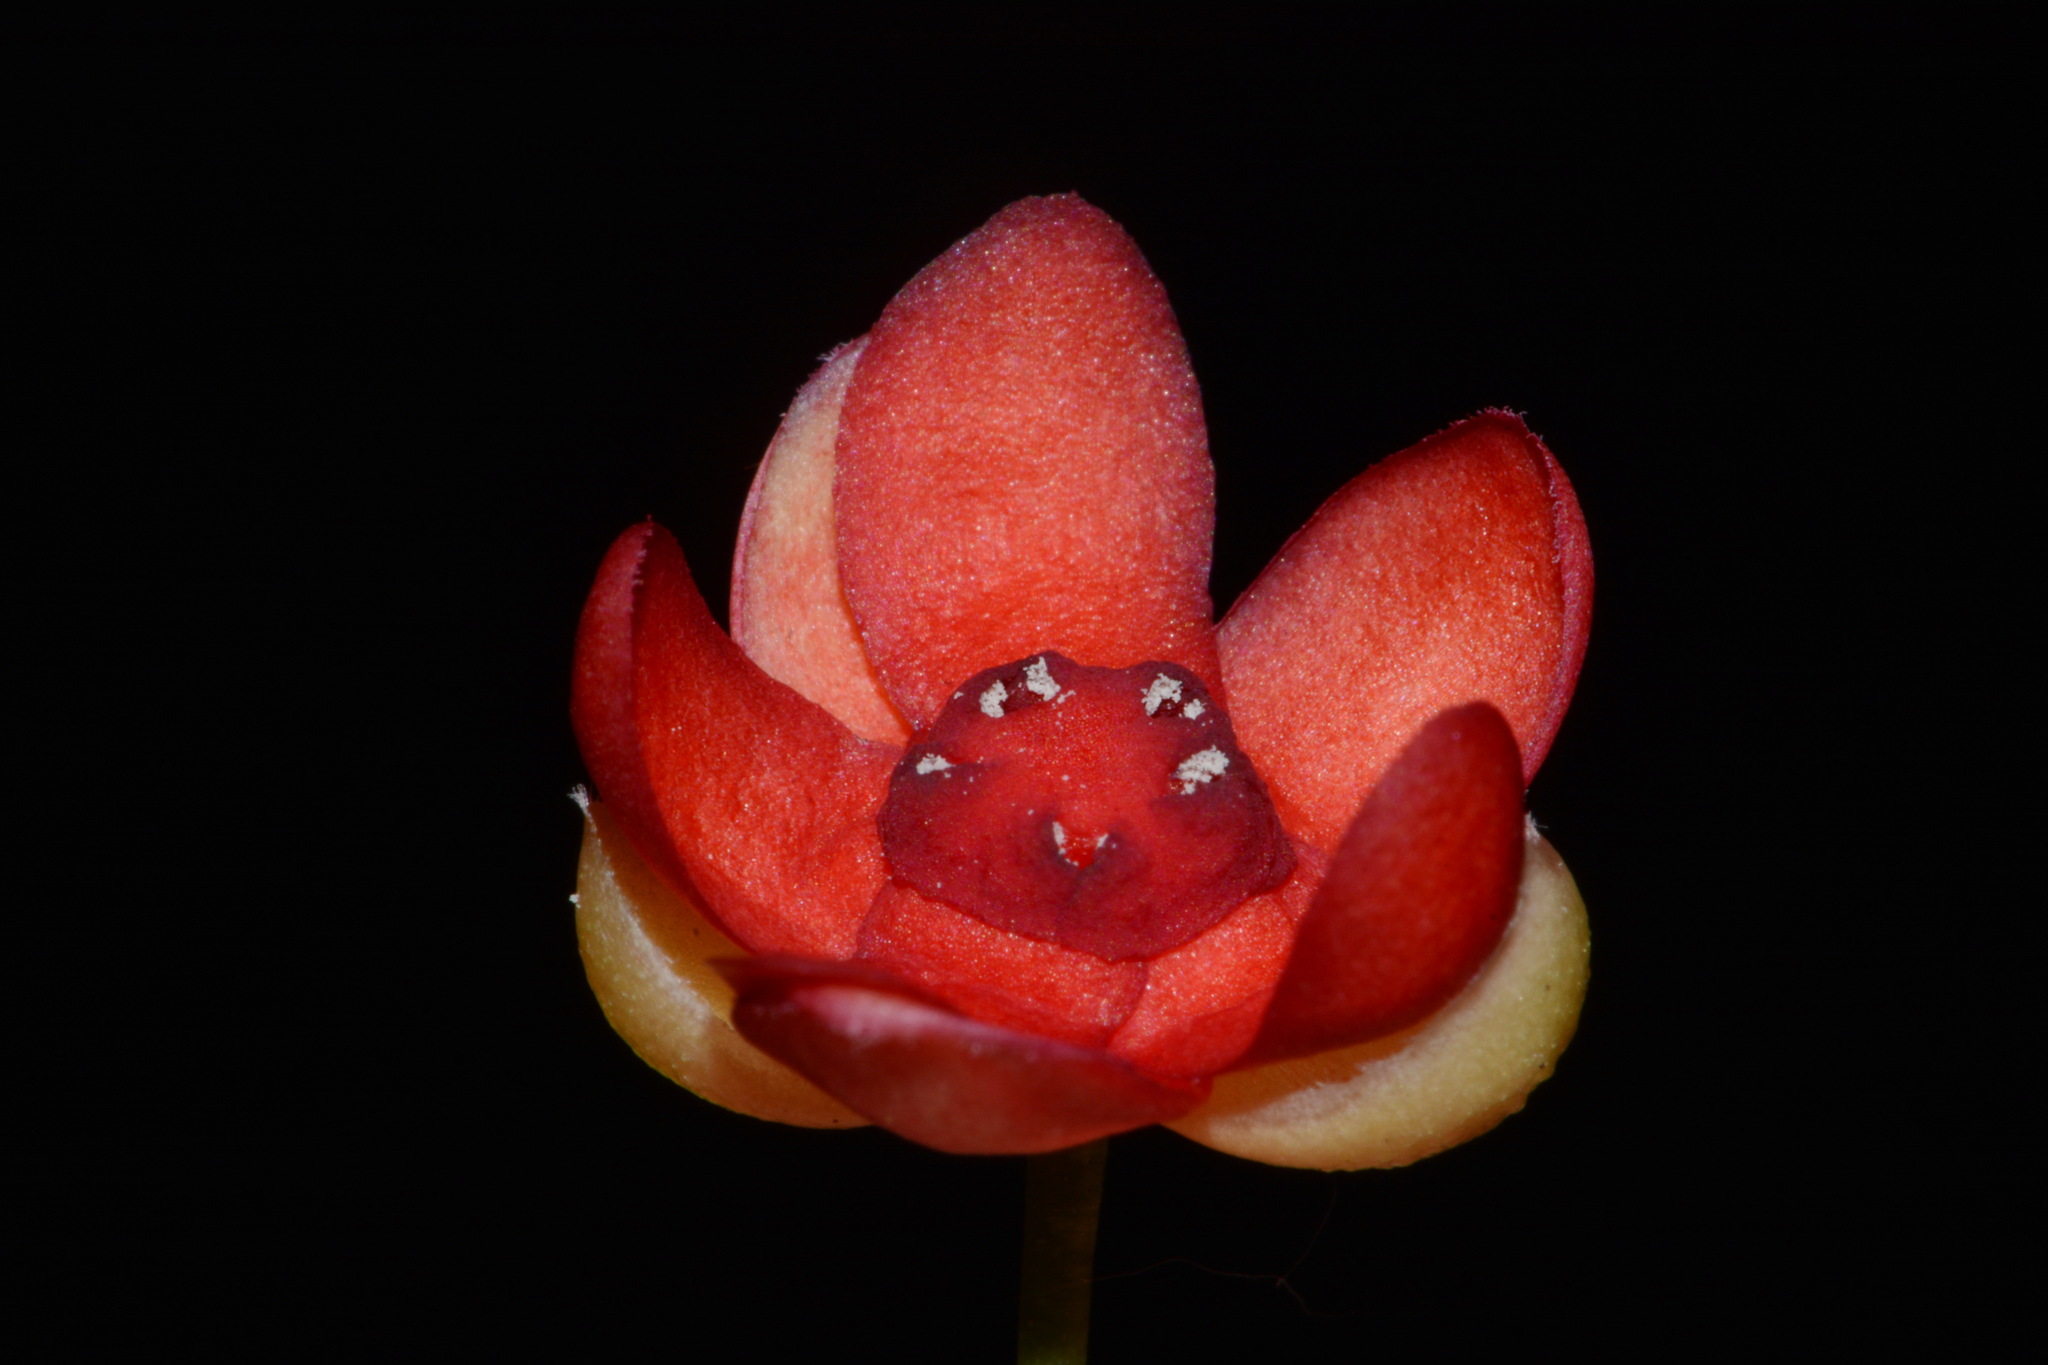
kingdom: Plantae
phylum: Tracheophyta
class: Magnoliopsida
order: Austrobaileyales
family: Schisandraceae
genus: Schisandra
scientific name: Schisandra glabra
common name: Bay-starvine
